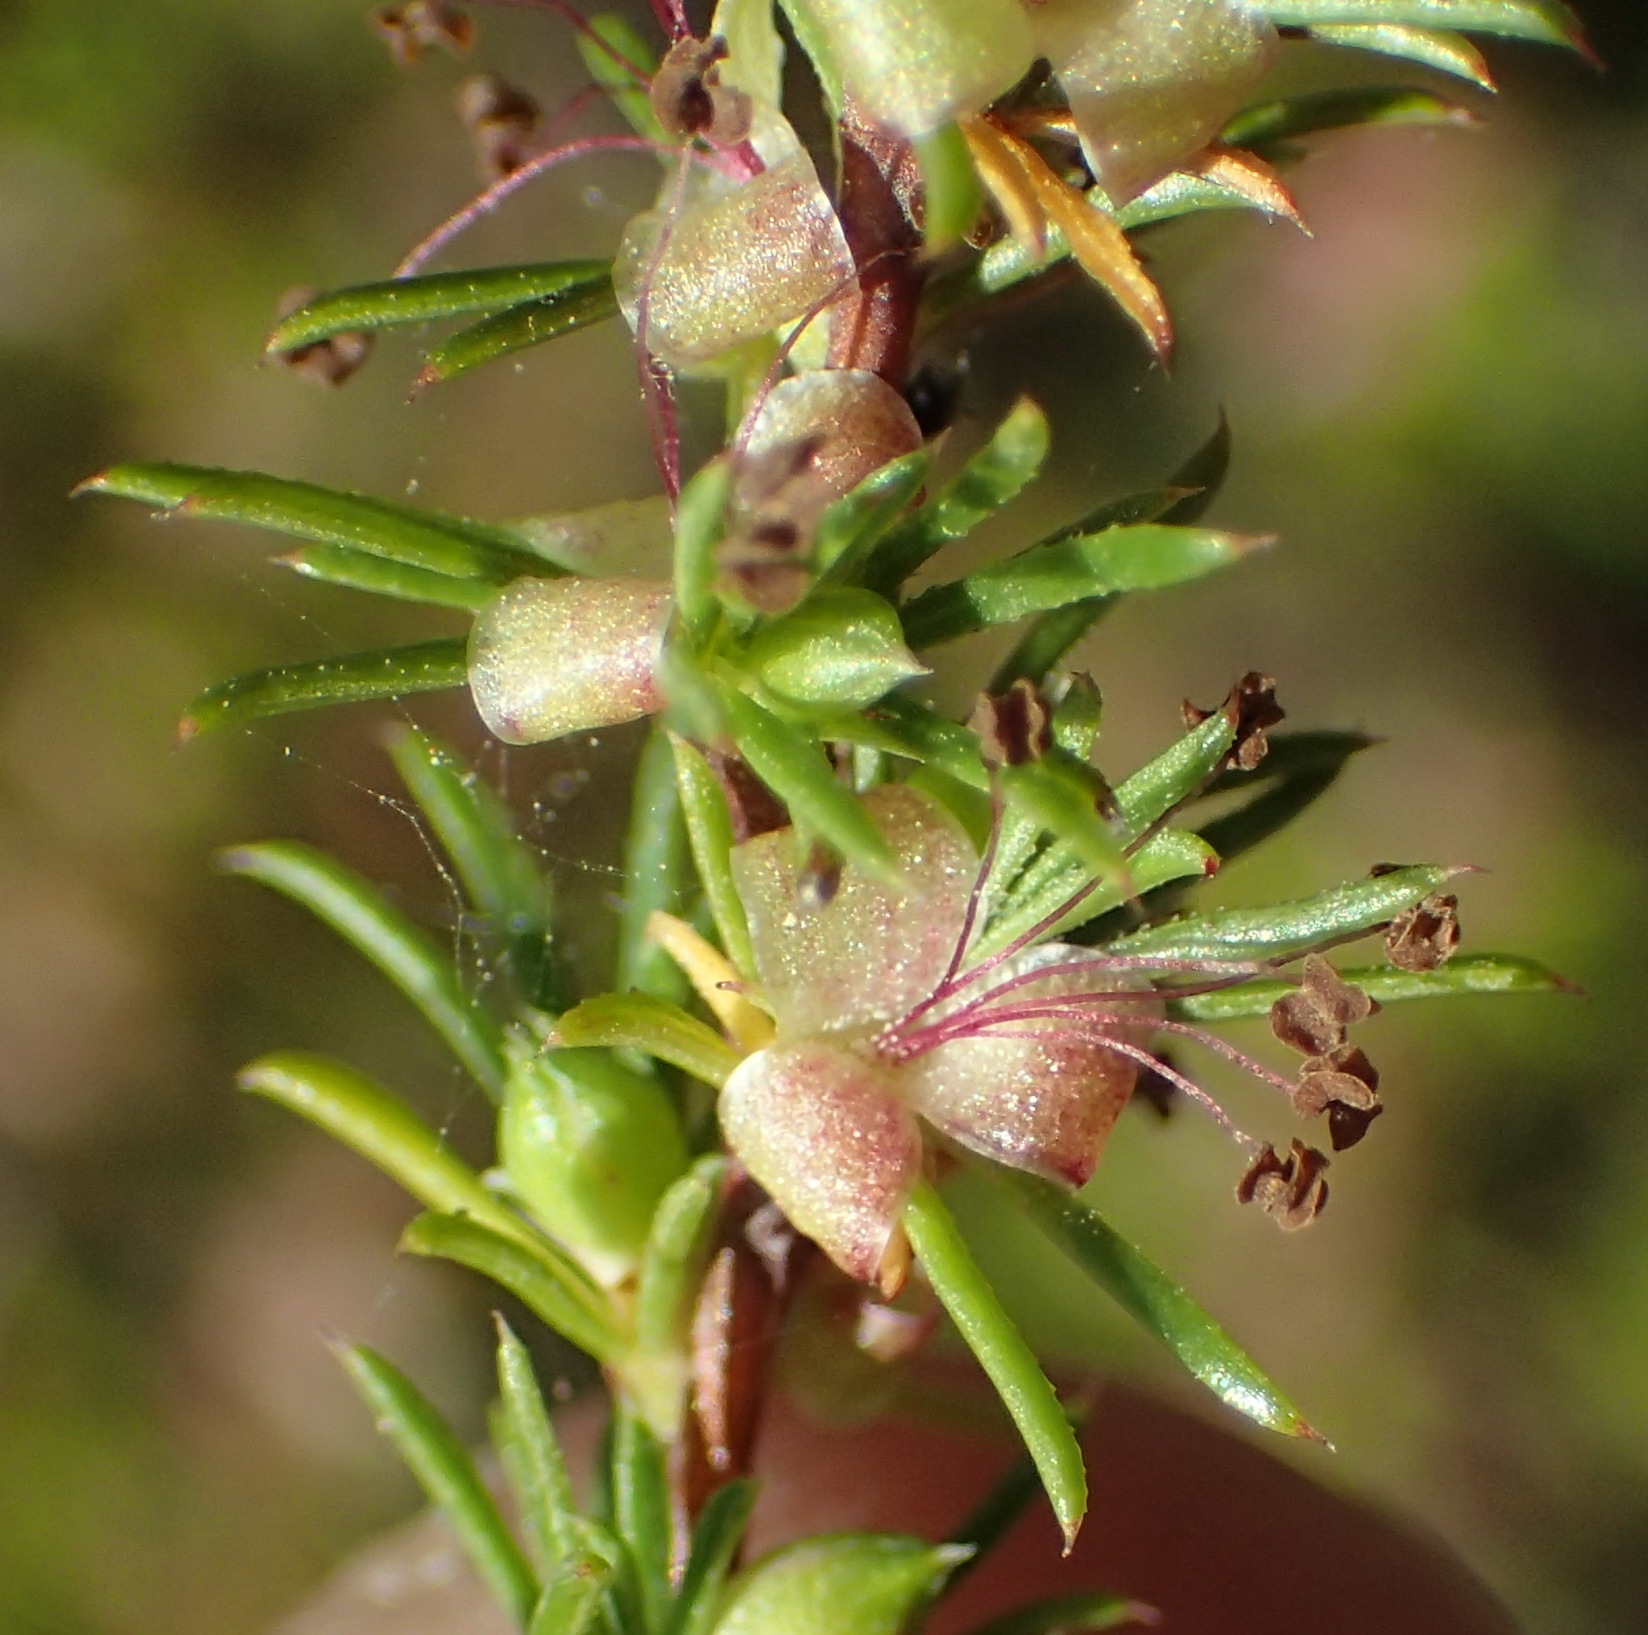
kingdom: Plantae
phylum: Tracheophyta
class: Magnoliopsida
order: Rosales
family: Rosaceae
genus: Cliffortia
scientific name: Cliffortia filifolia
